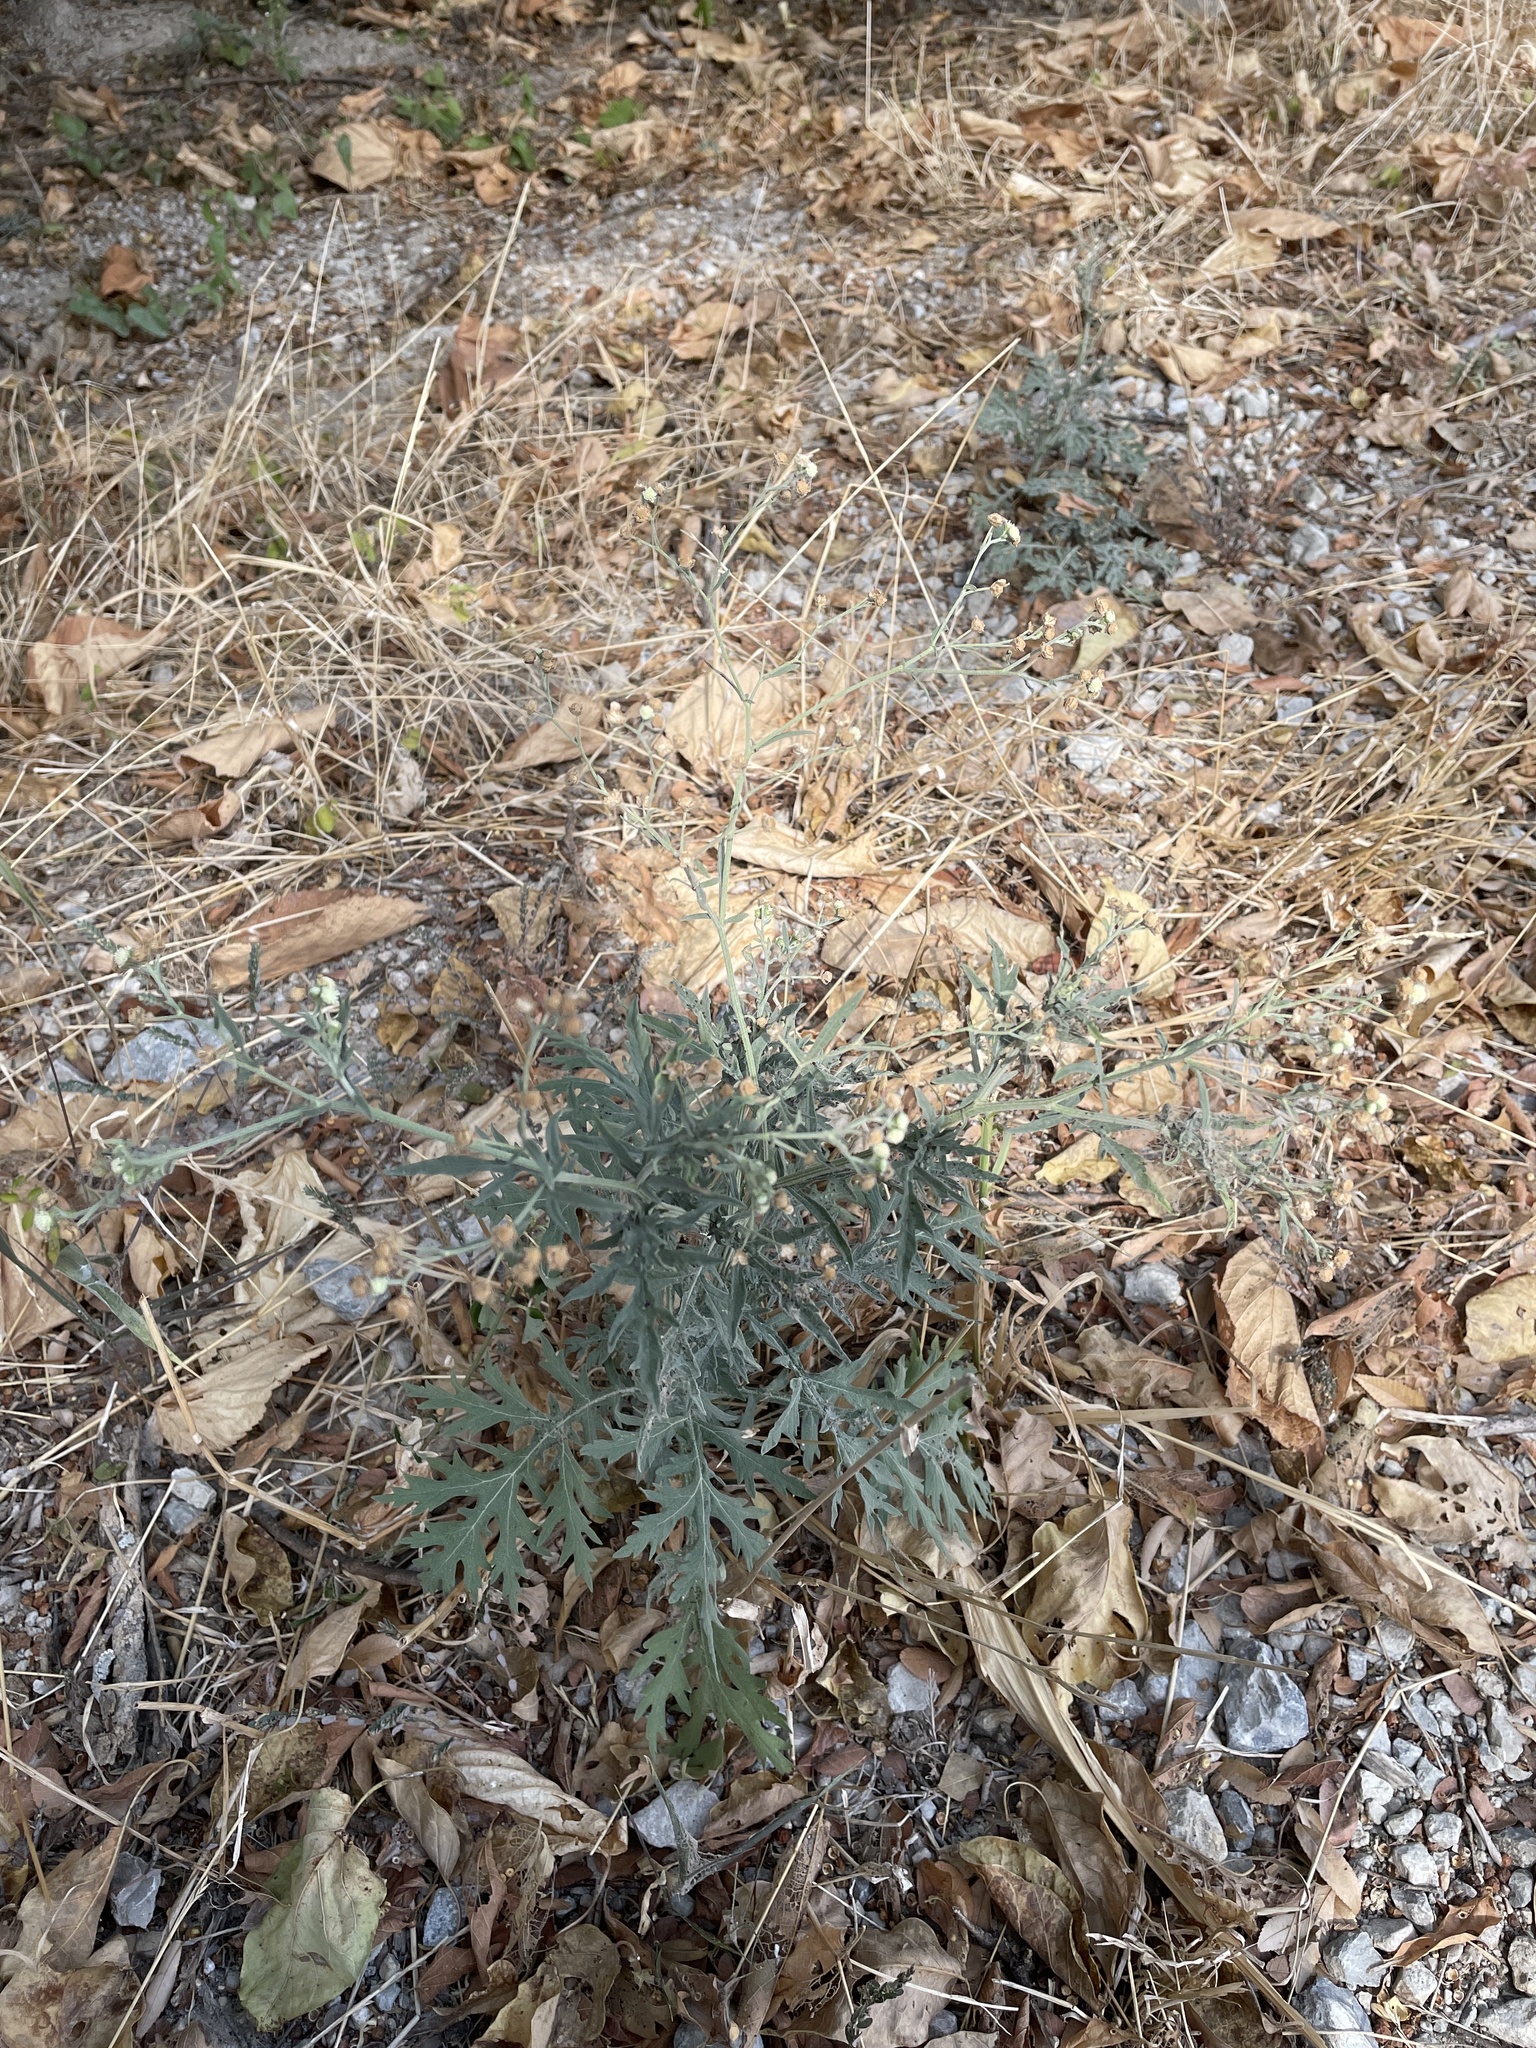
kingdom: Plantae
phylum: Tracheophyta
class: Magnoliopsida
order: Asterales
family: Asteraceae
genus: Parthenium
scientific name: Parthenium hysterophorus
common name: Santa maria feverfew
